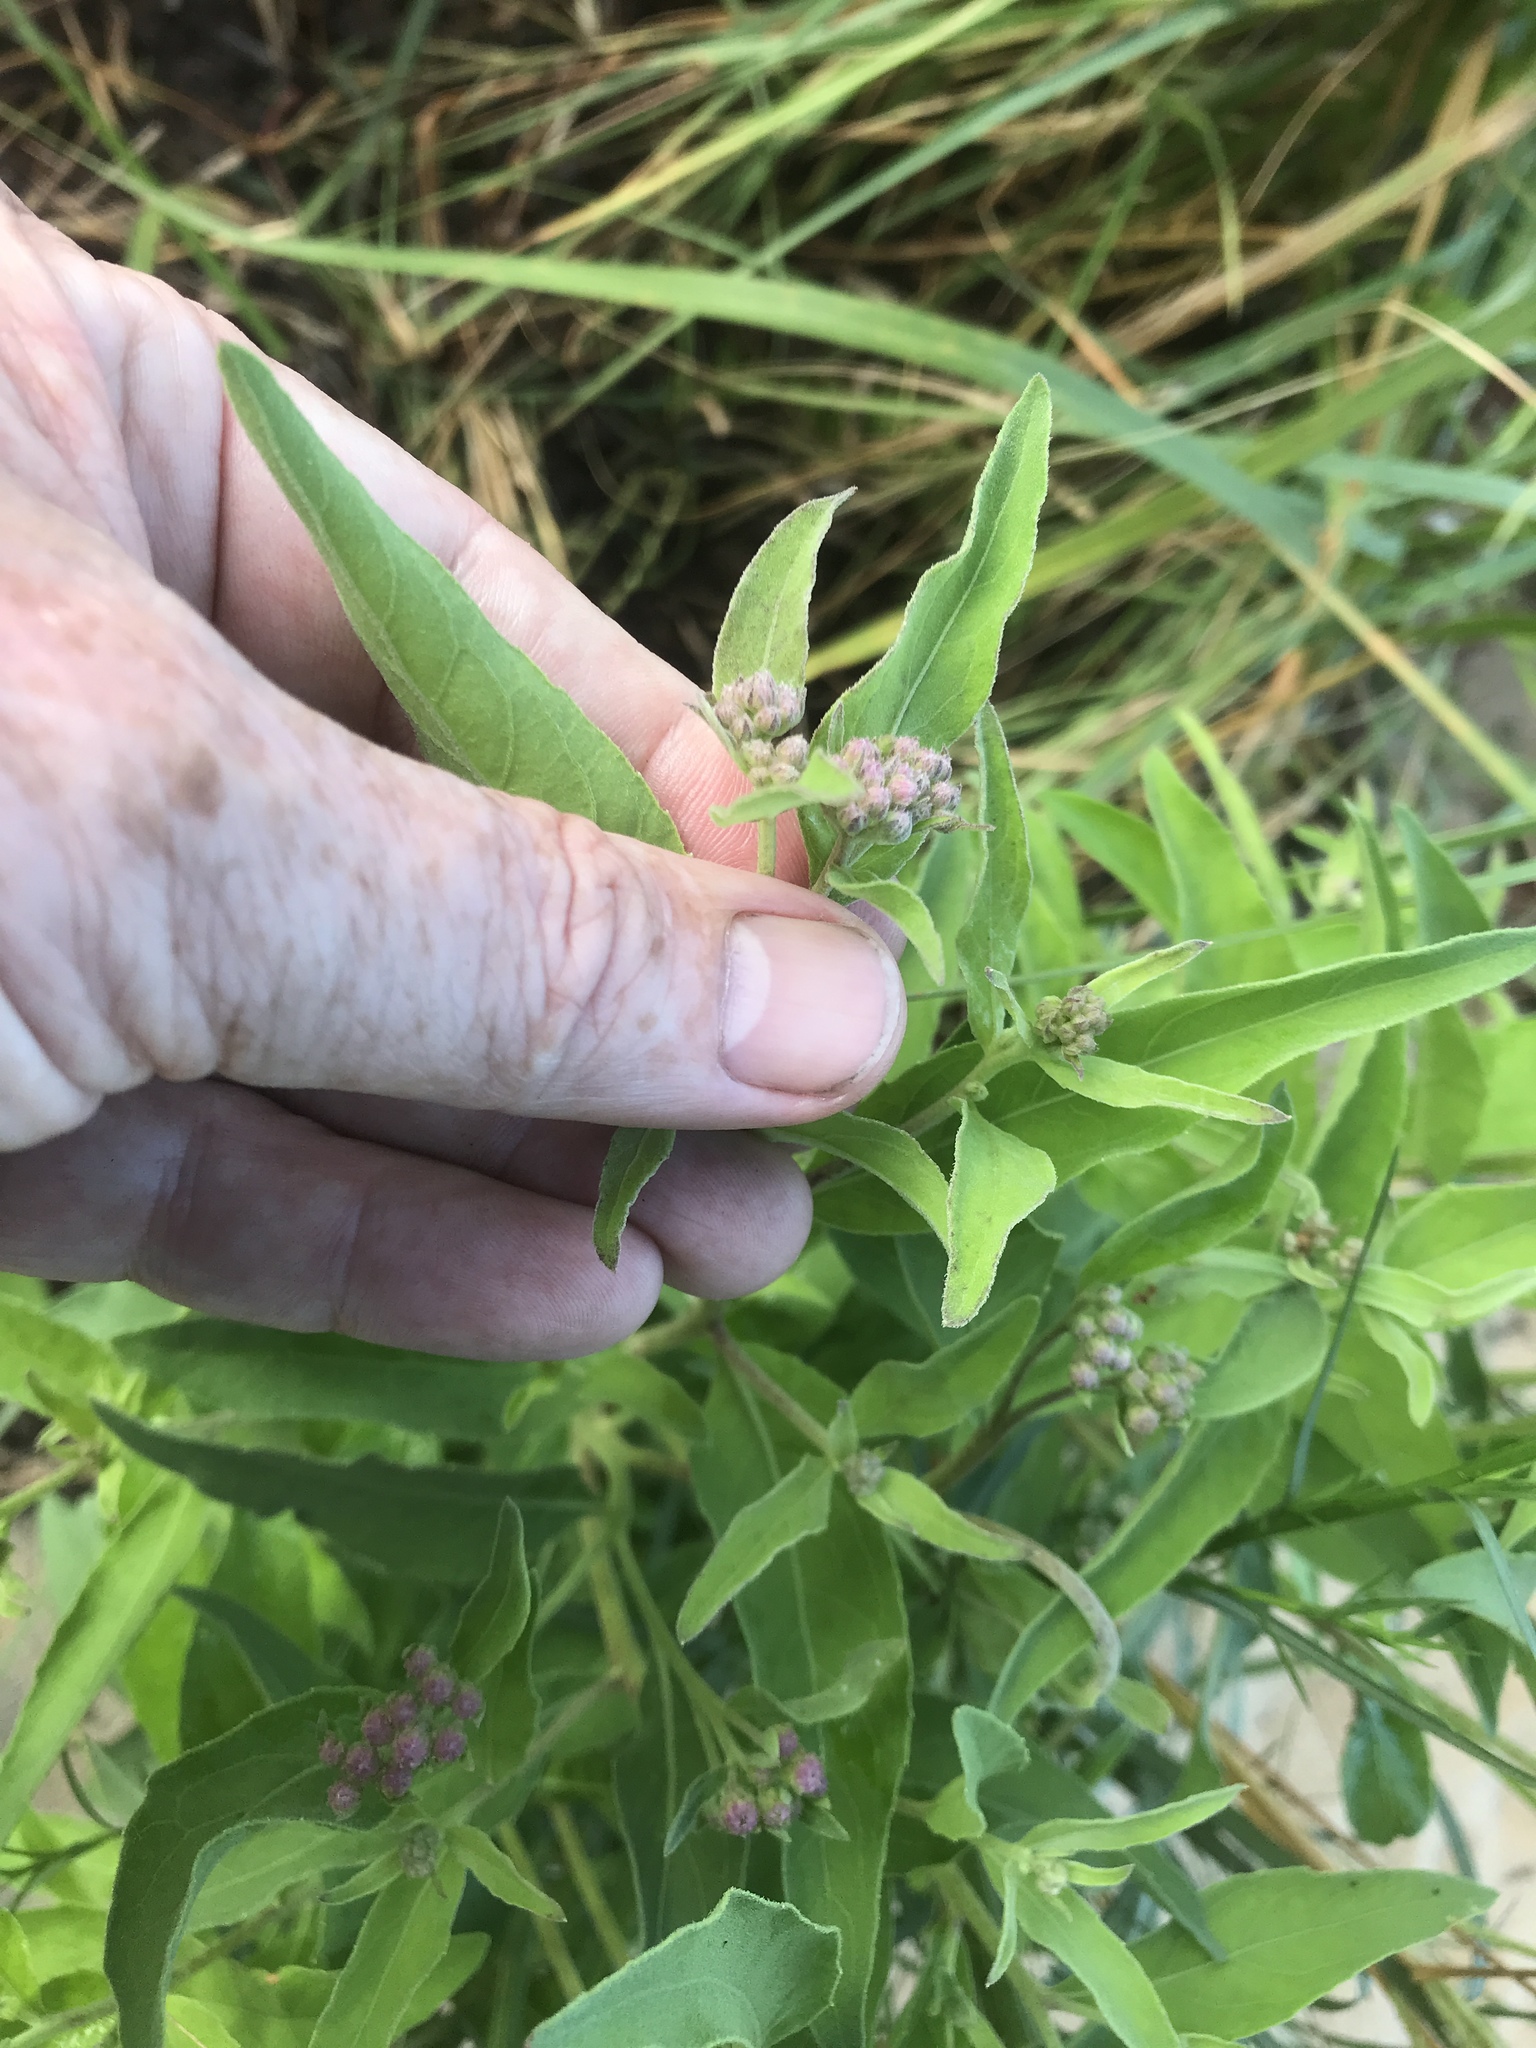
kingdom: Plantae
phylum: Tracheophyta
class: Magnoliopsida
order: Asterales
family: Asteraceae
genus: Pluchea
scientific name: Pluchea odorata
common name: Saltmarsh fleabane
